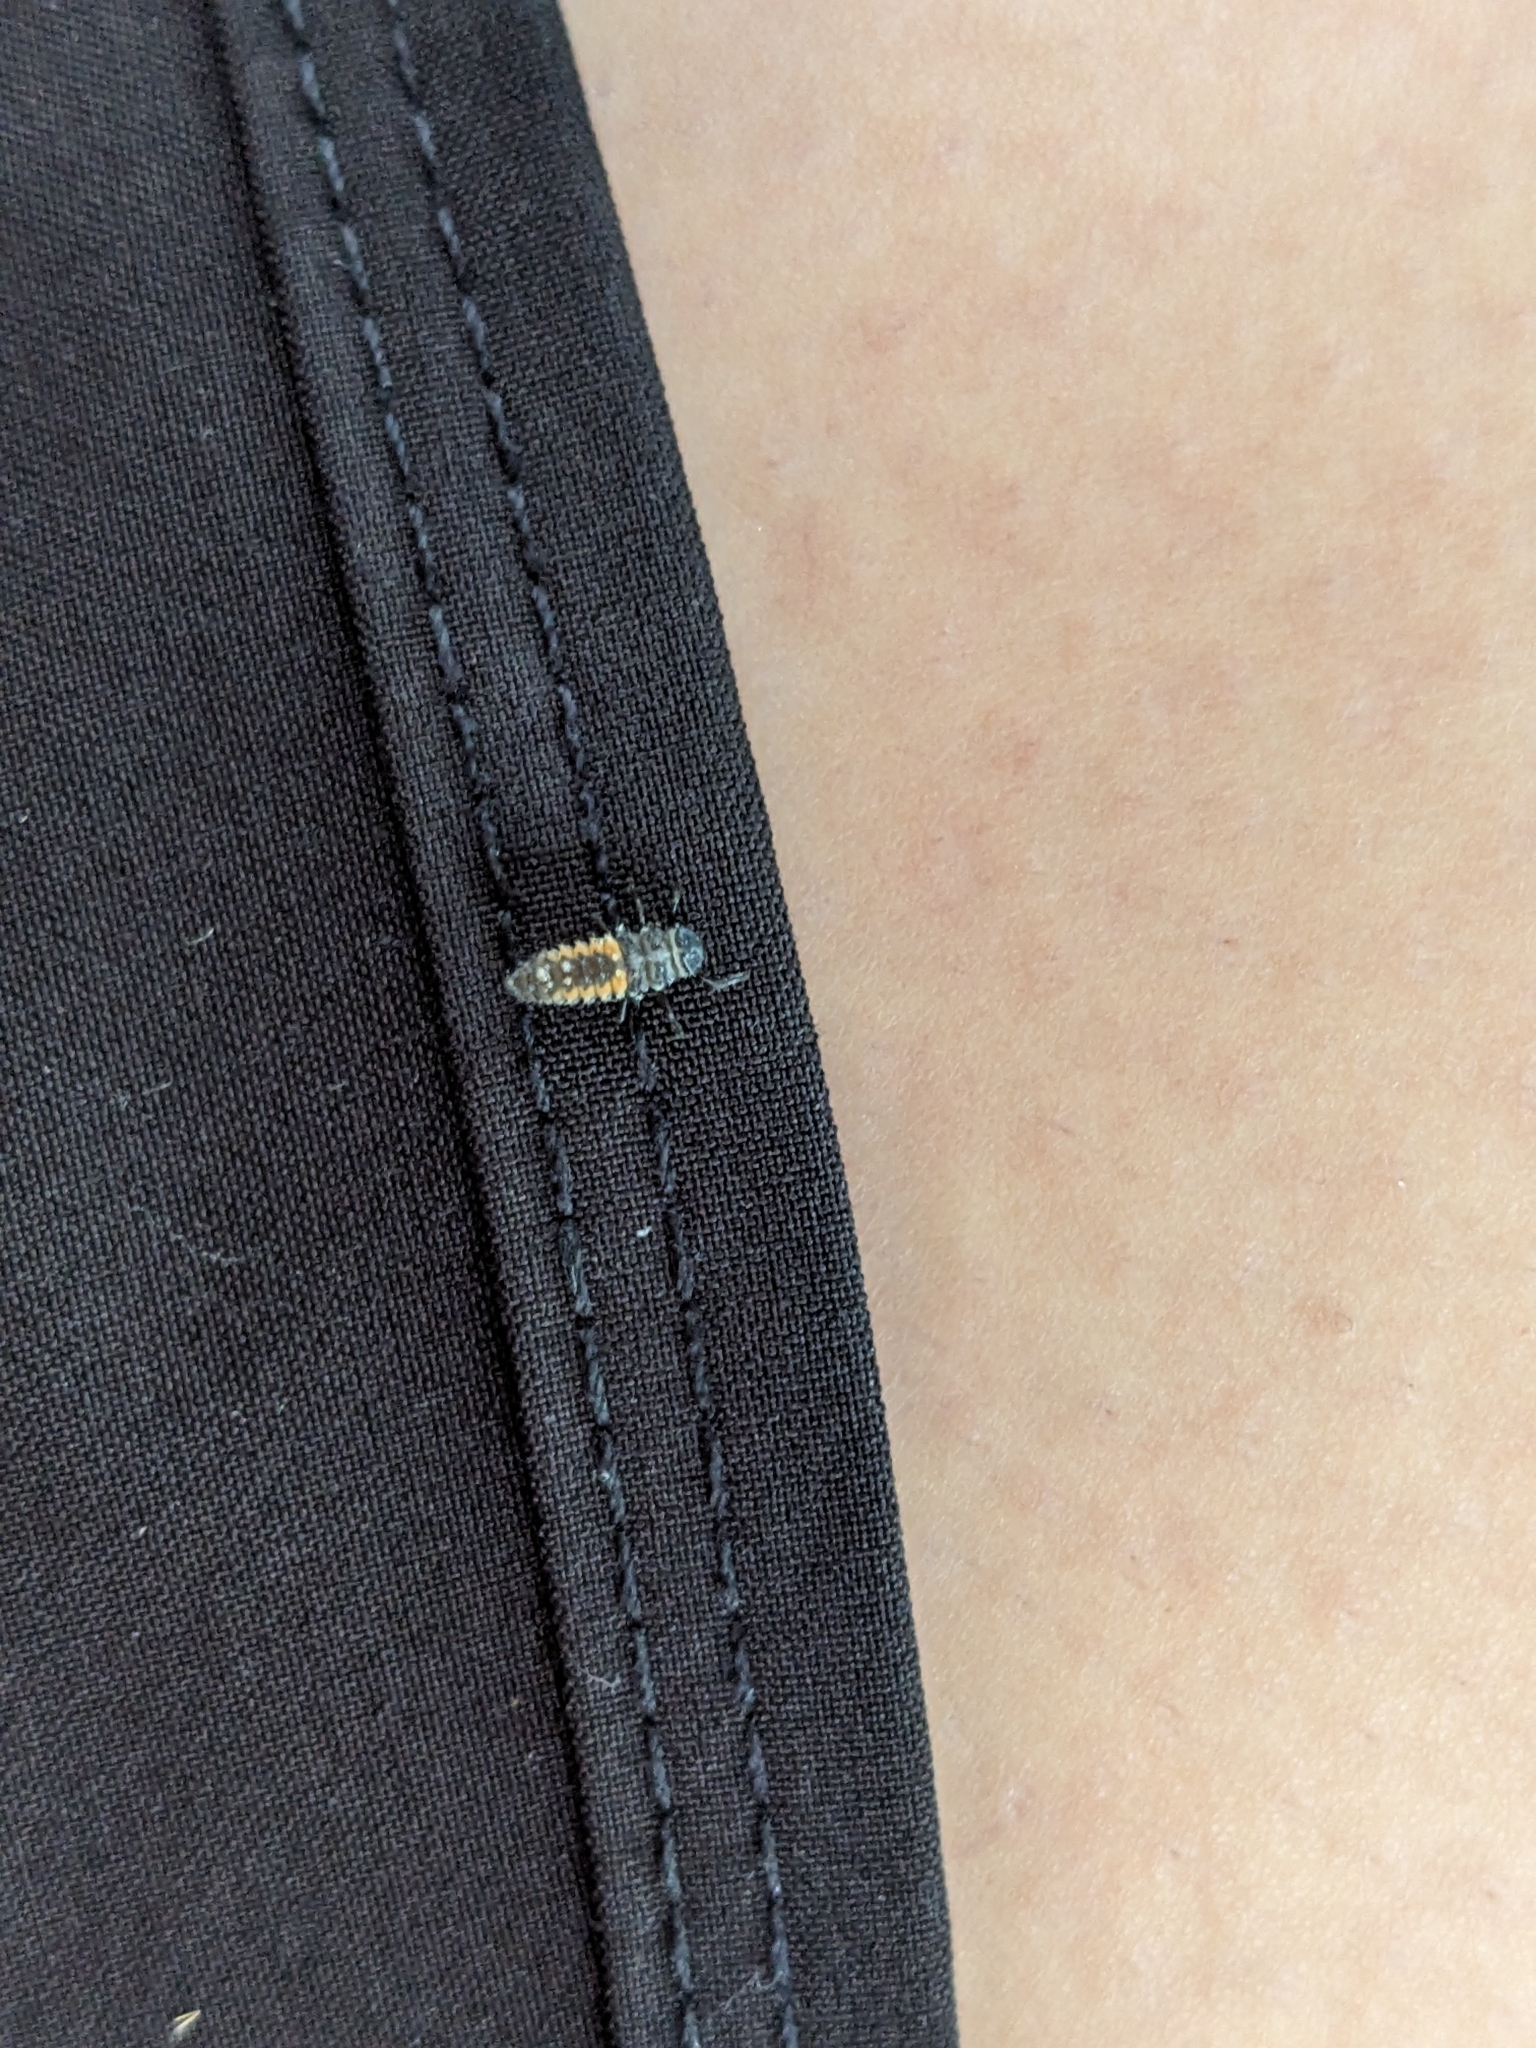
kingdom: Animalia
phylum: Arthropoda
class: Insecta
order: Coleoptera
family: Coccinellidae
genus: Harmonia
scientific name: Harmonia axyridis
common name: Harlequin ladybird
